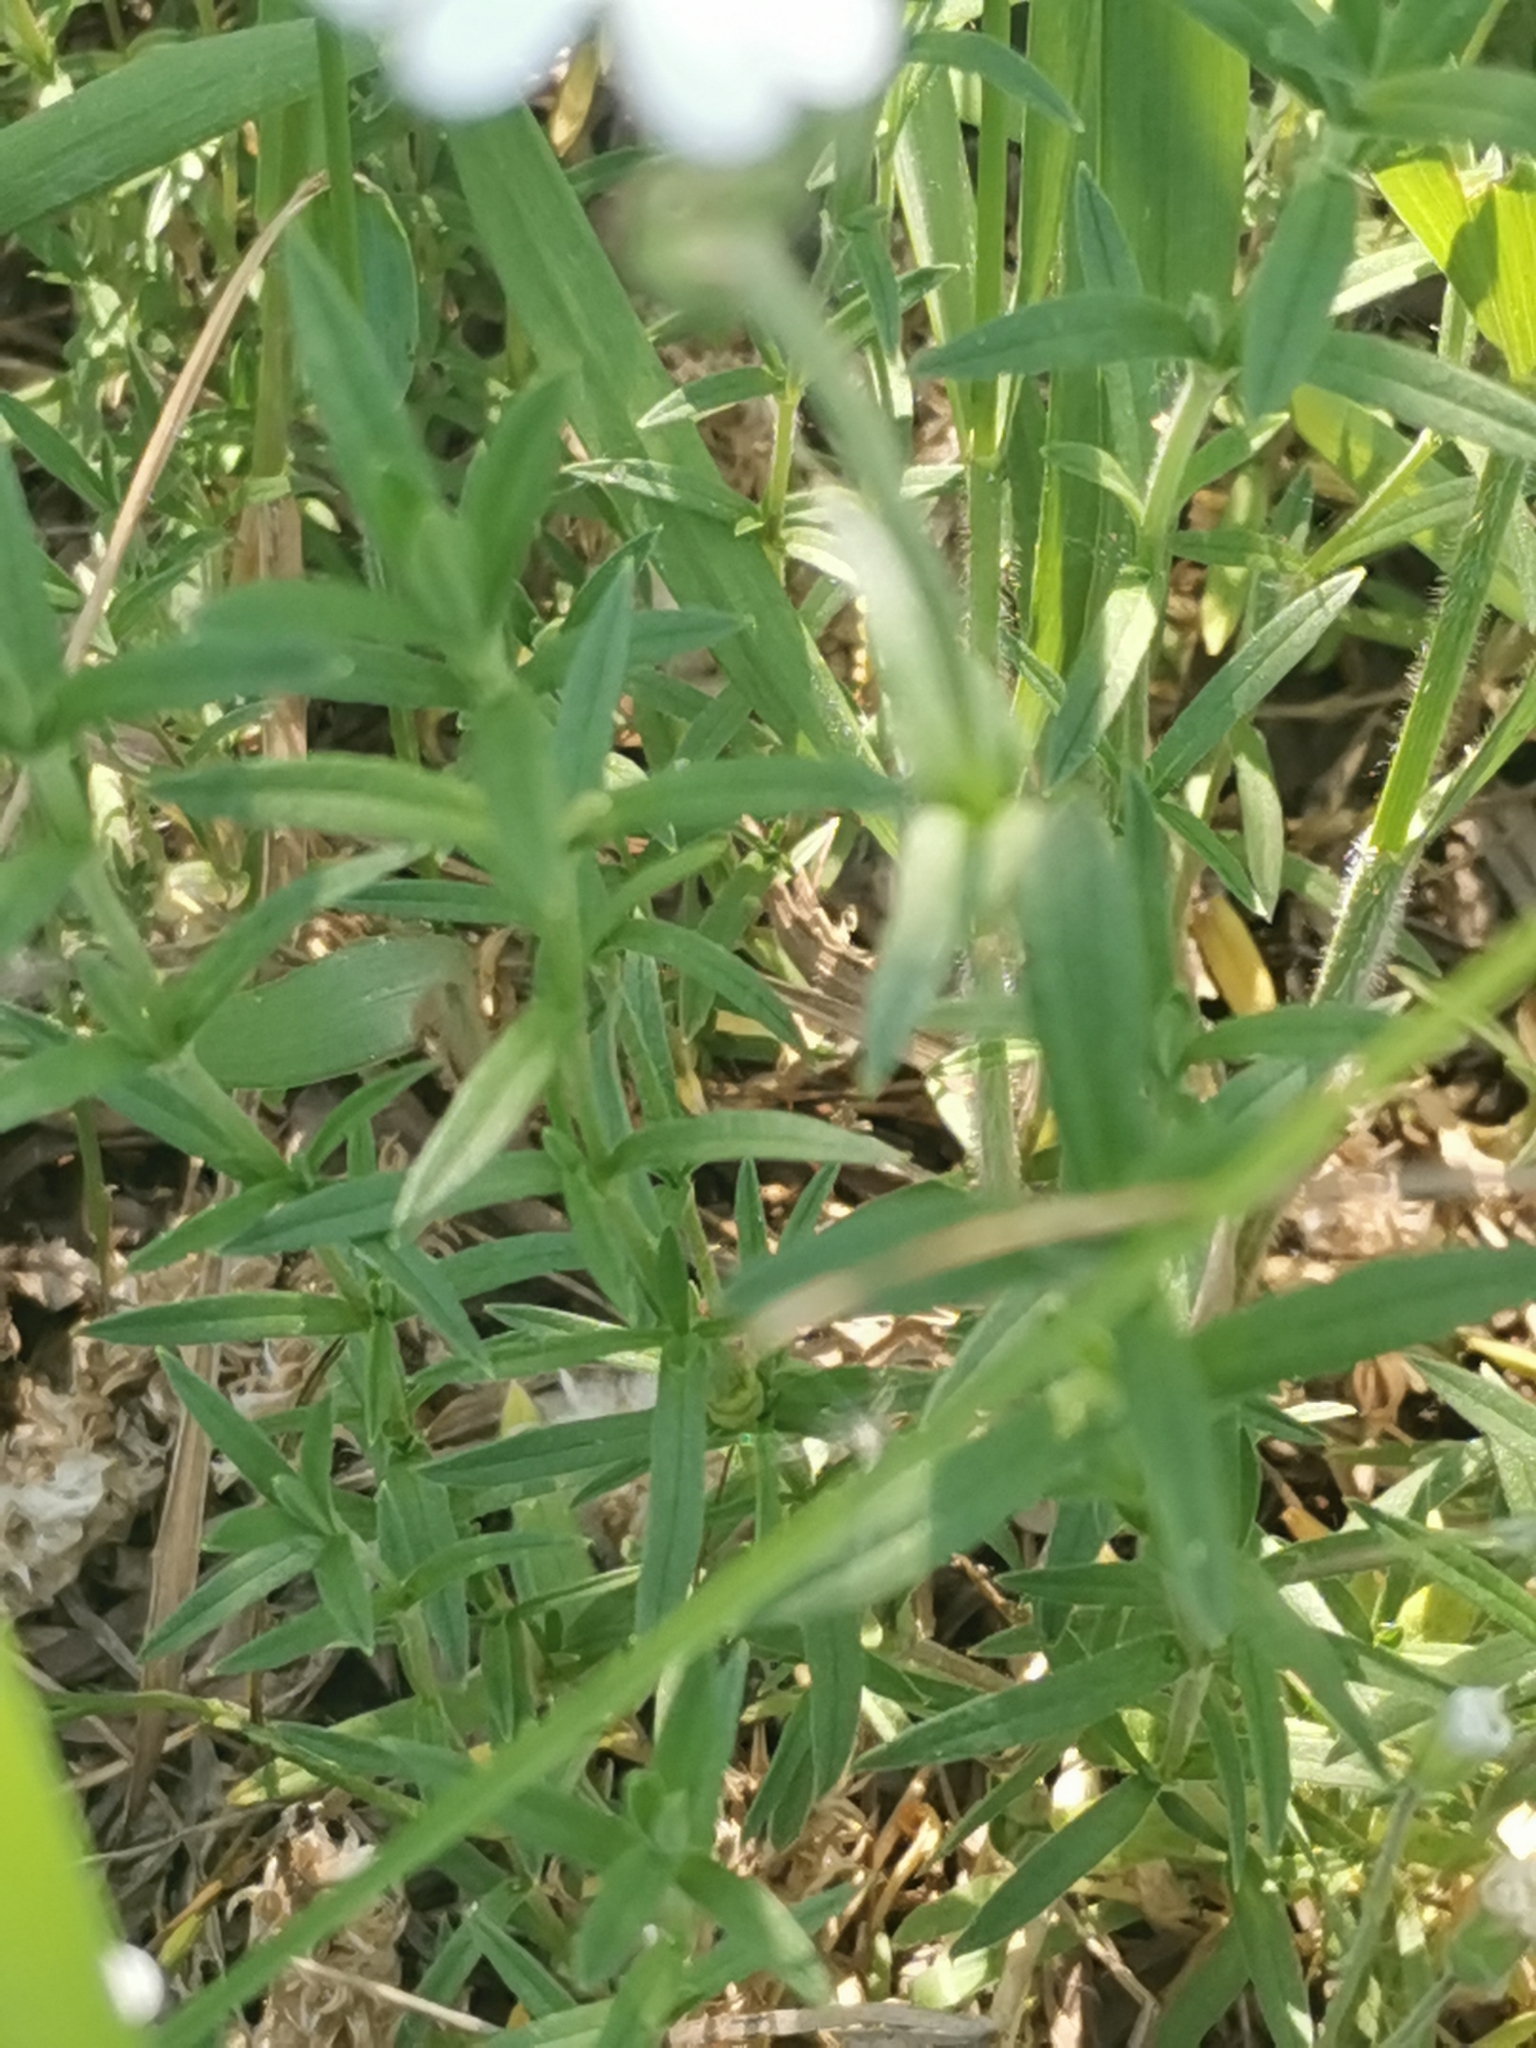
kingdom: Plantae
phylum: Tracheophyta
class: Magnoliopsida
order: Caryophyllales
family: Caryophyllaceae
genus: Cerastium
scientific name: Cerastium arvense
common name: Field mouse-ear
